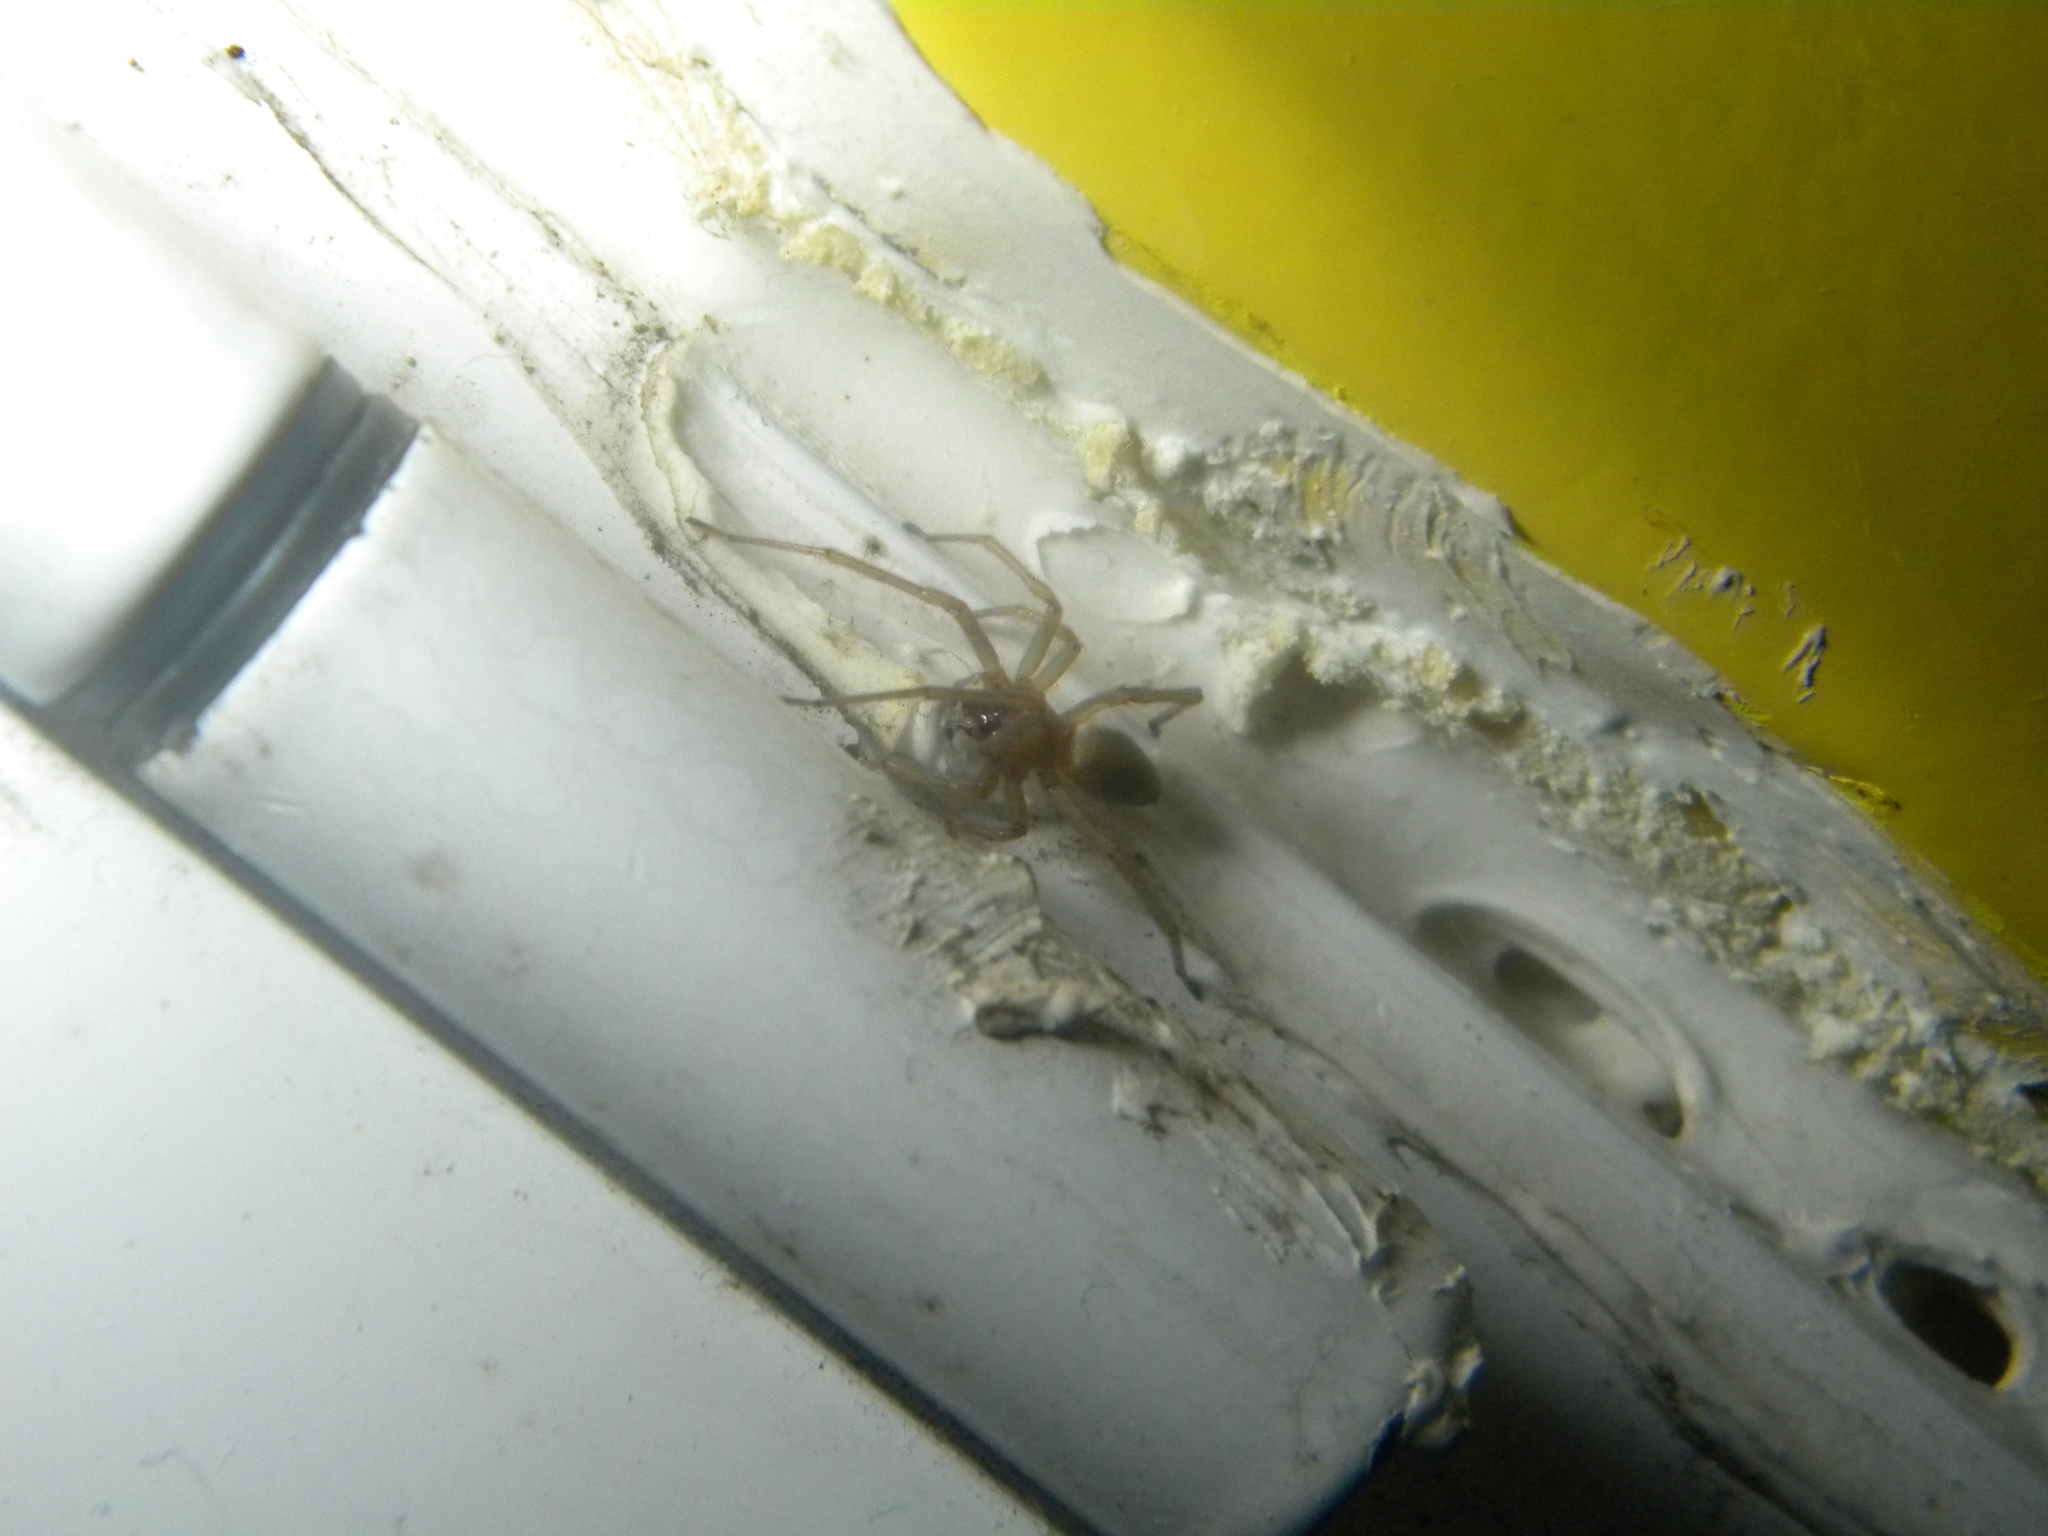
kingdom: Animalia
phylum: Arthropoda
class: Arachnida
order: Araneae
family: Sicariidae
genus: Loxosceles
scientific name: Loxosceles rufescens
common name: Mediterranean recluse spider
